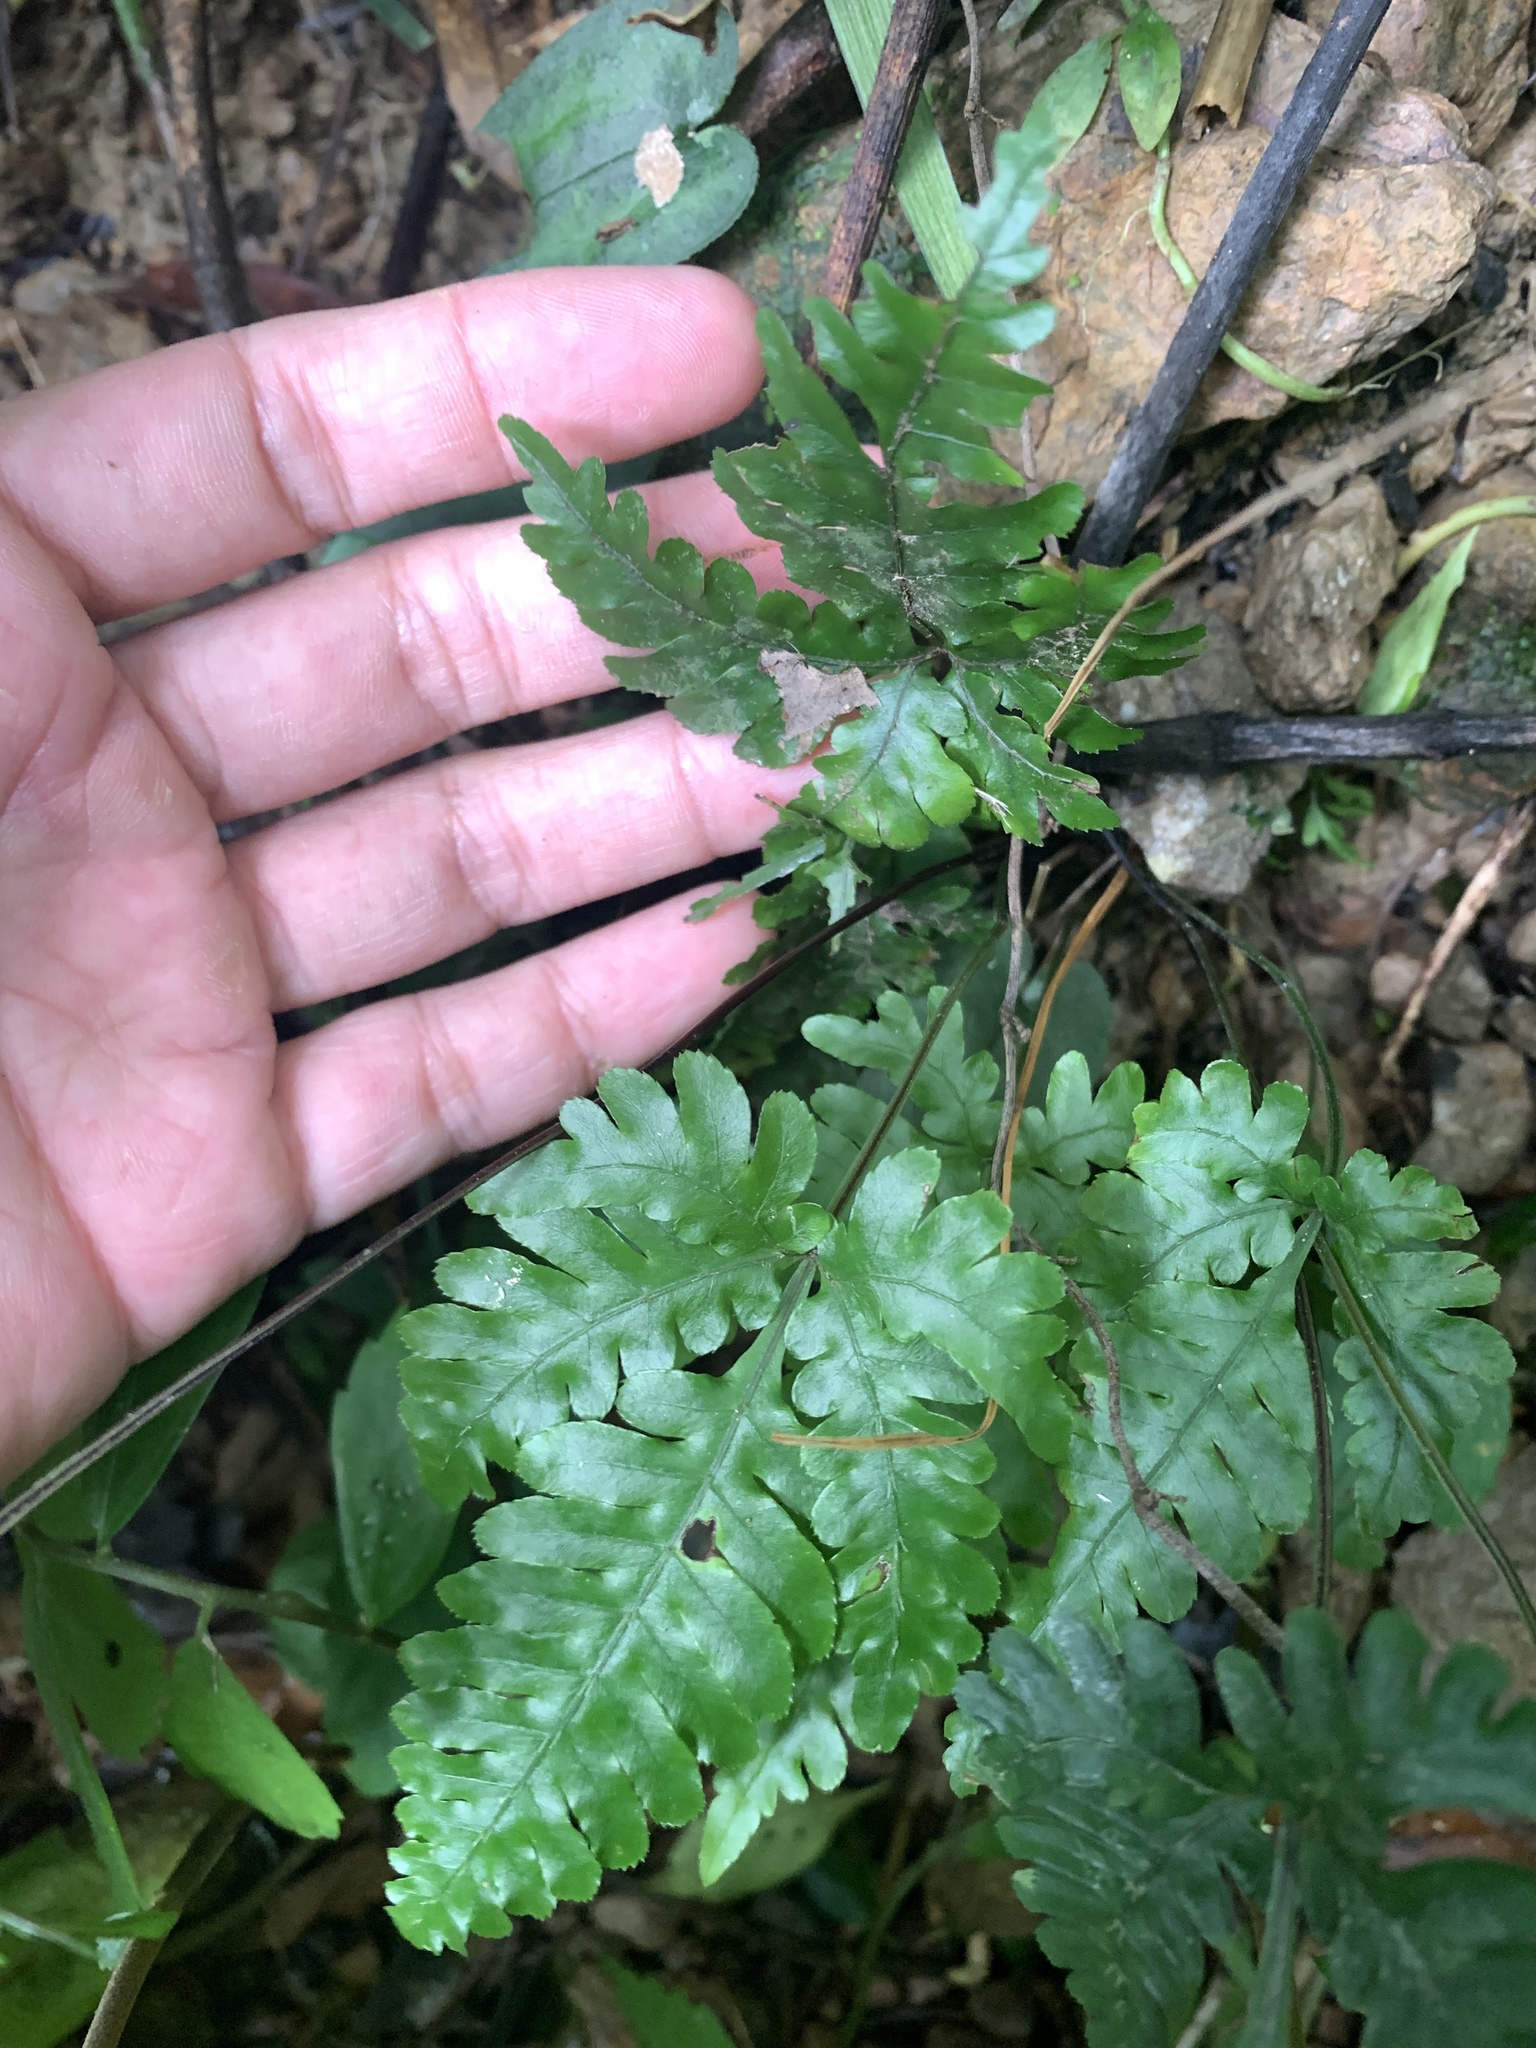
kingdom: Plantae
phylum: Tracheophyta
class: Polypodiopsida
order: Polypodiales
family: Pteridaceae
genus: Pteris
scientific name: Pteris grevilleana
